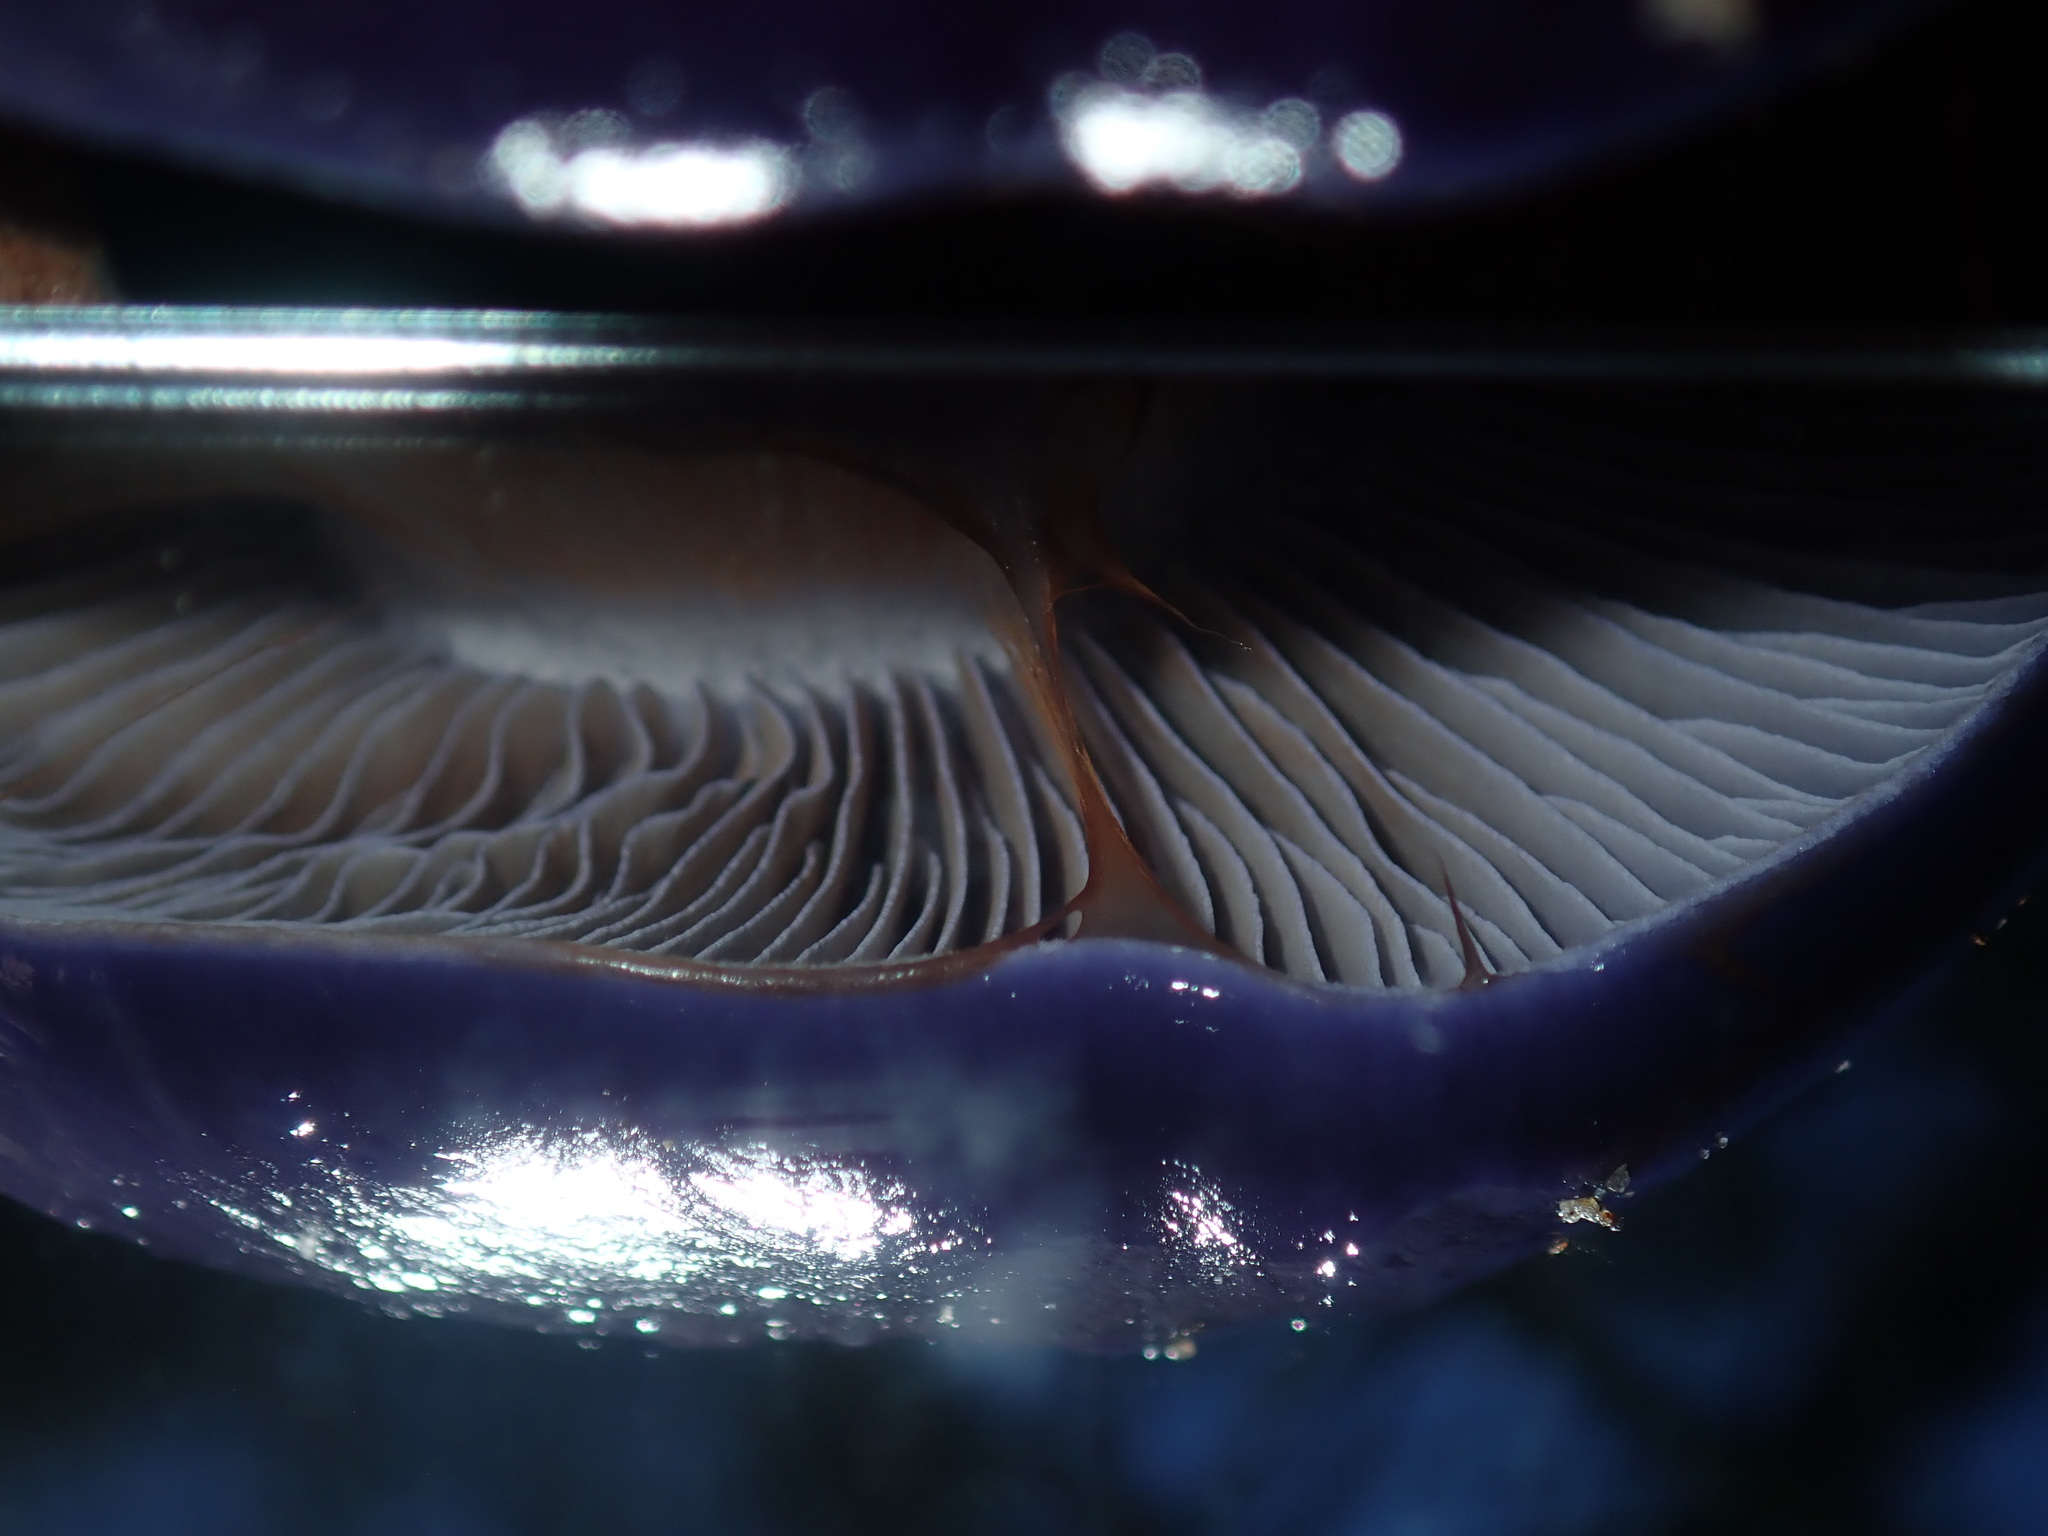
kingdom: Fungi
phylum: Basidiomycota
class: Agaricomycetes
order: Agaricales
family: Cortinariaceae
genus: Cortinarius
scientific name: Cortinarius archeri
